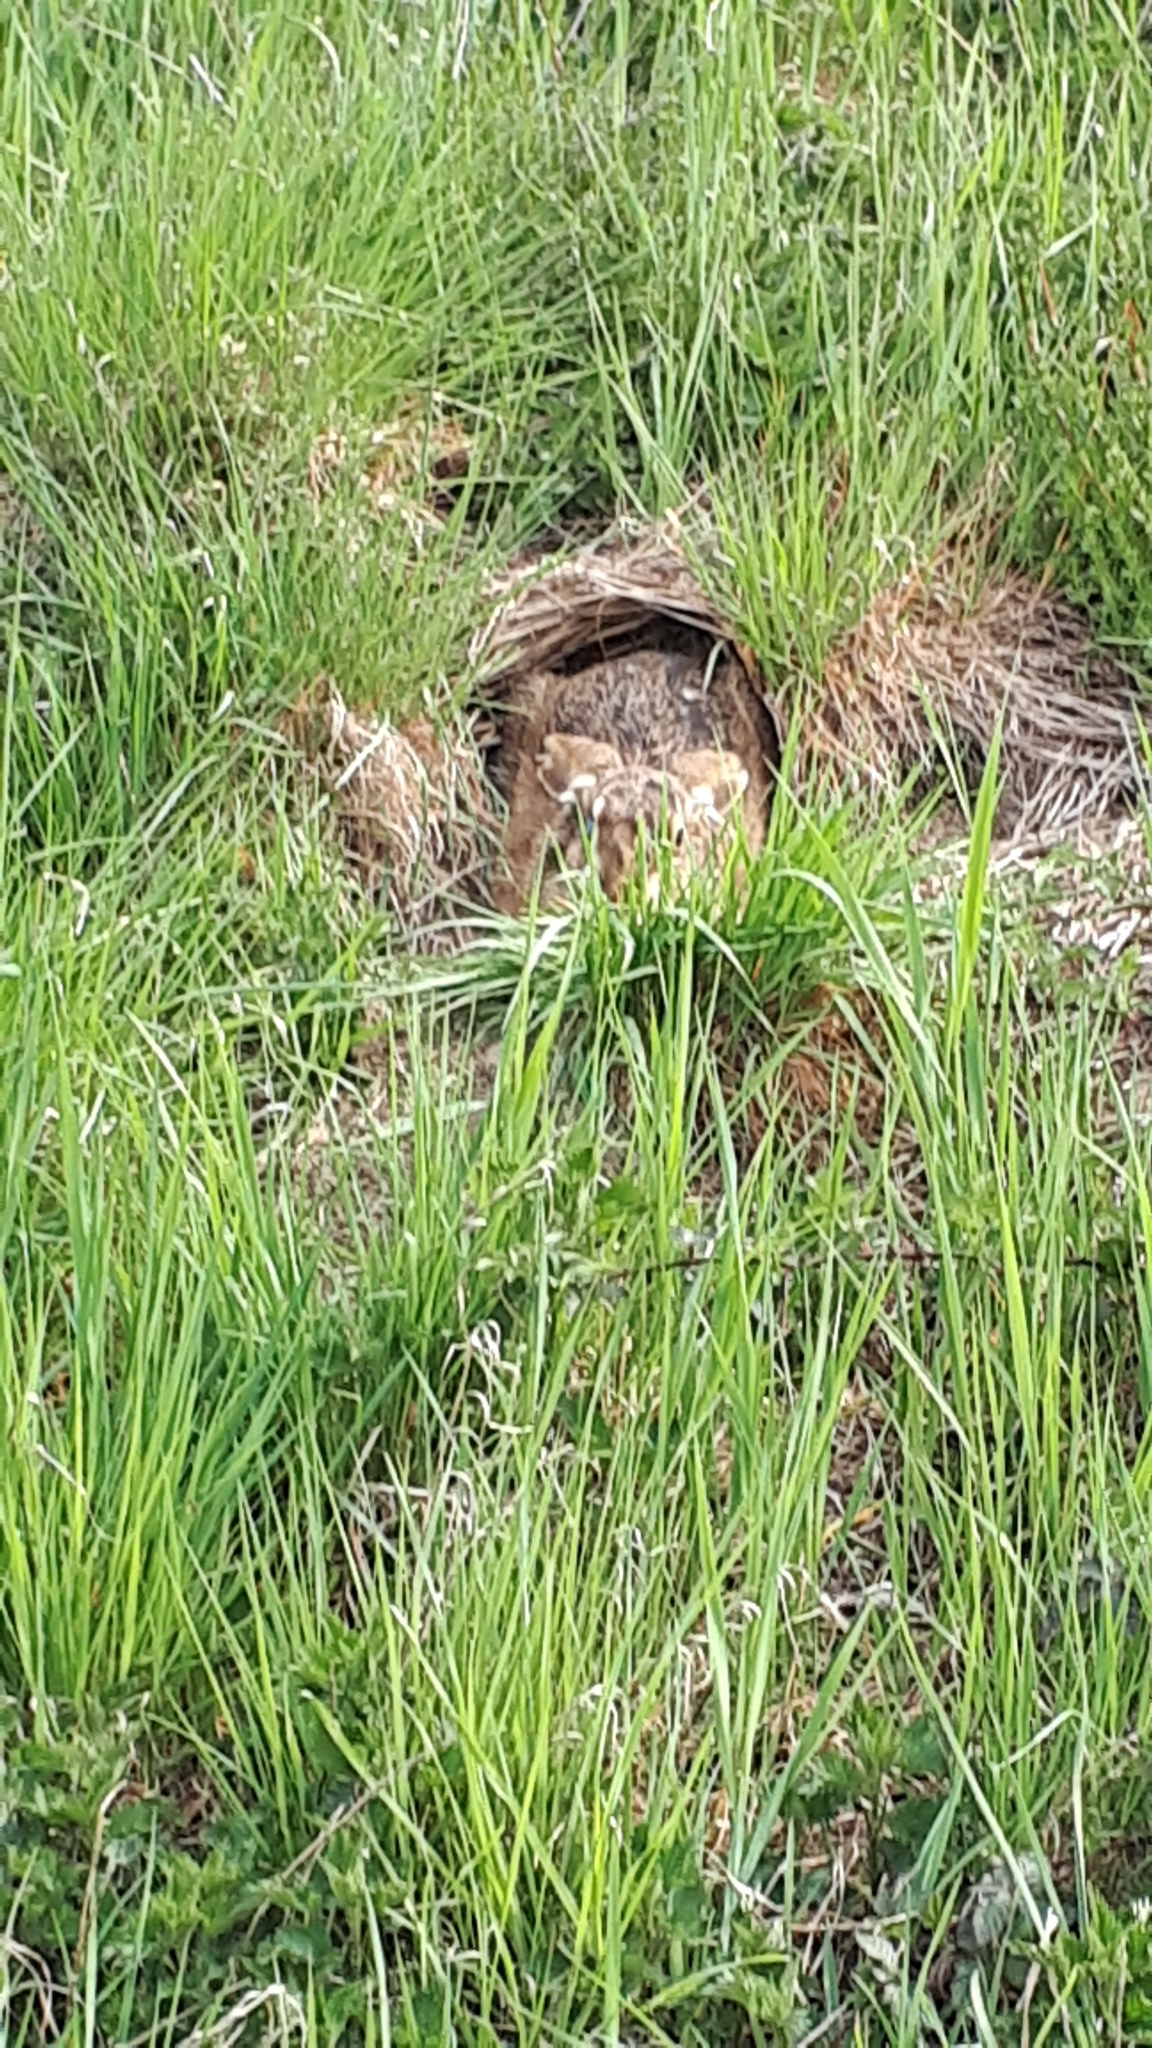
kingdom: Animalia
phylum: Chordata
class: Mammalia
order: Lagomorpha
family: Leporidae
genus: Lepus
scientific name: Lepus europaeus
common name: European hare
